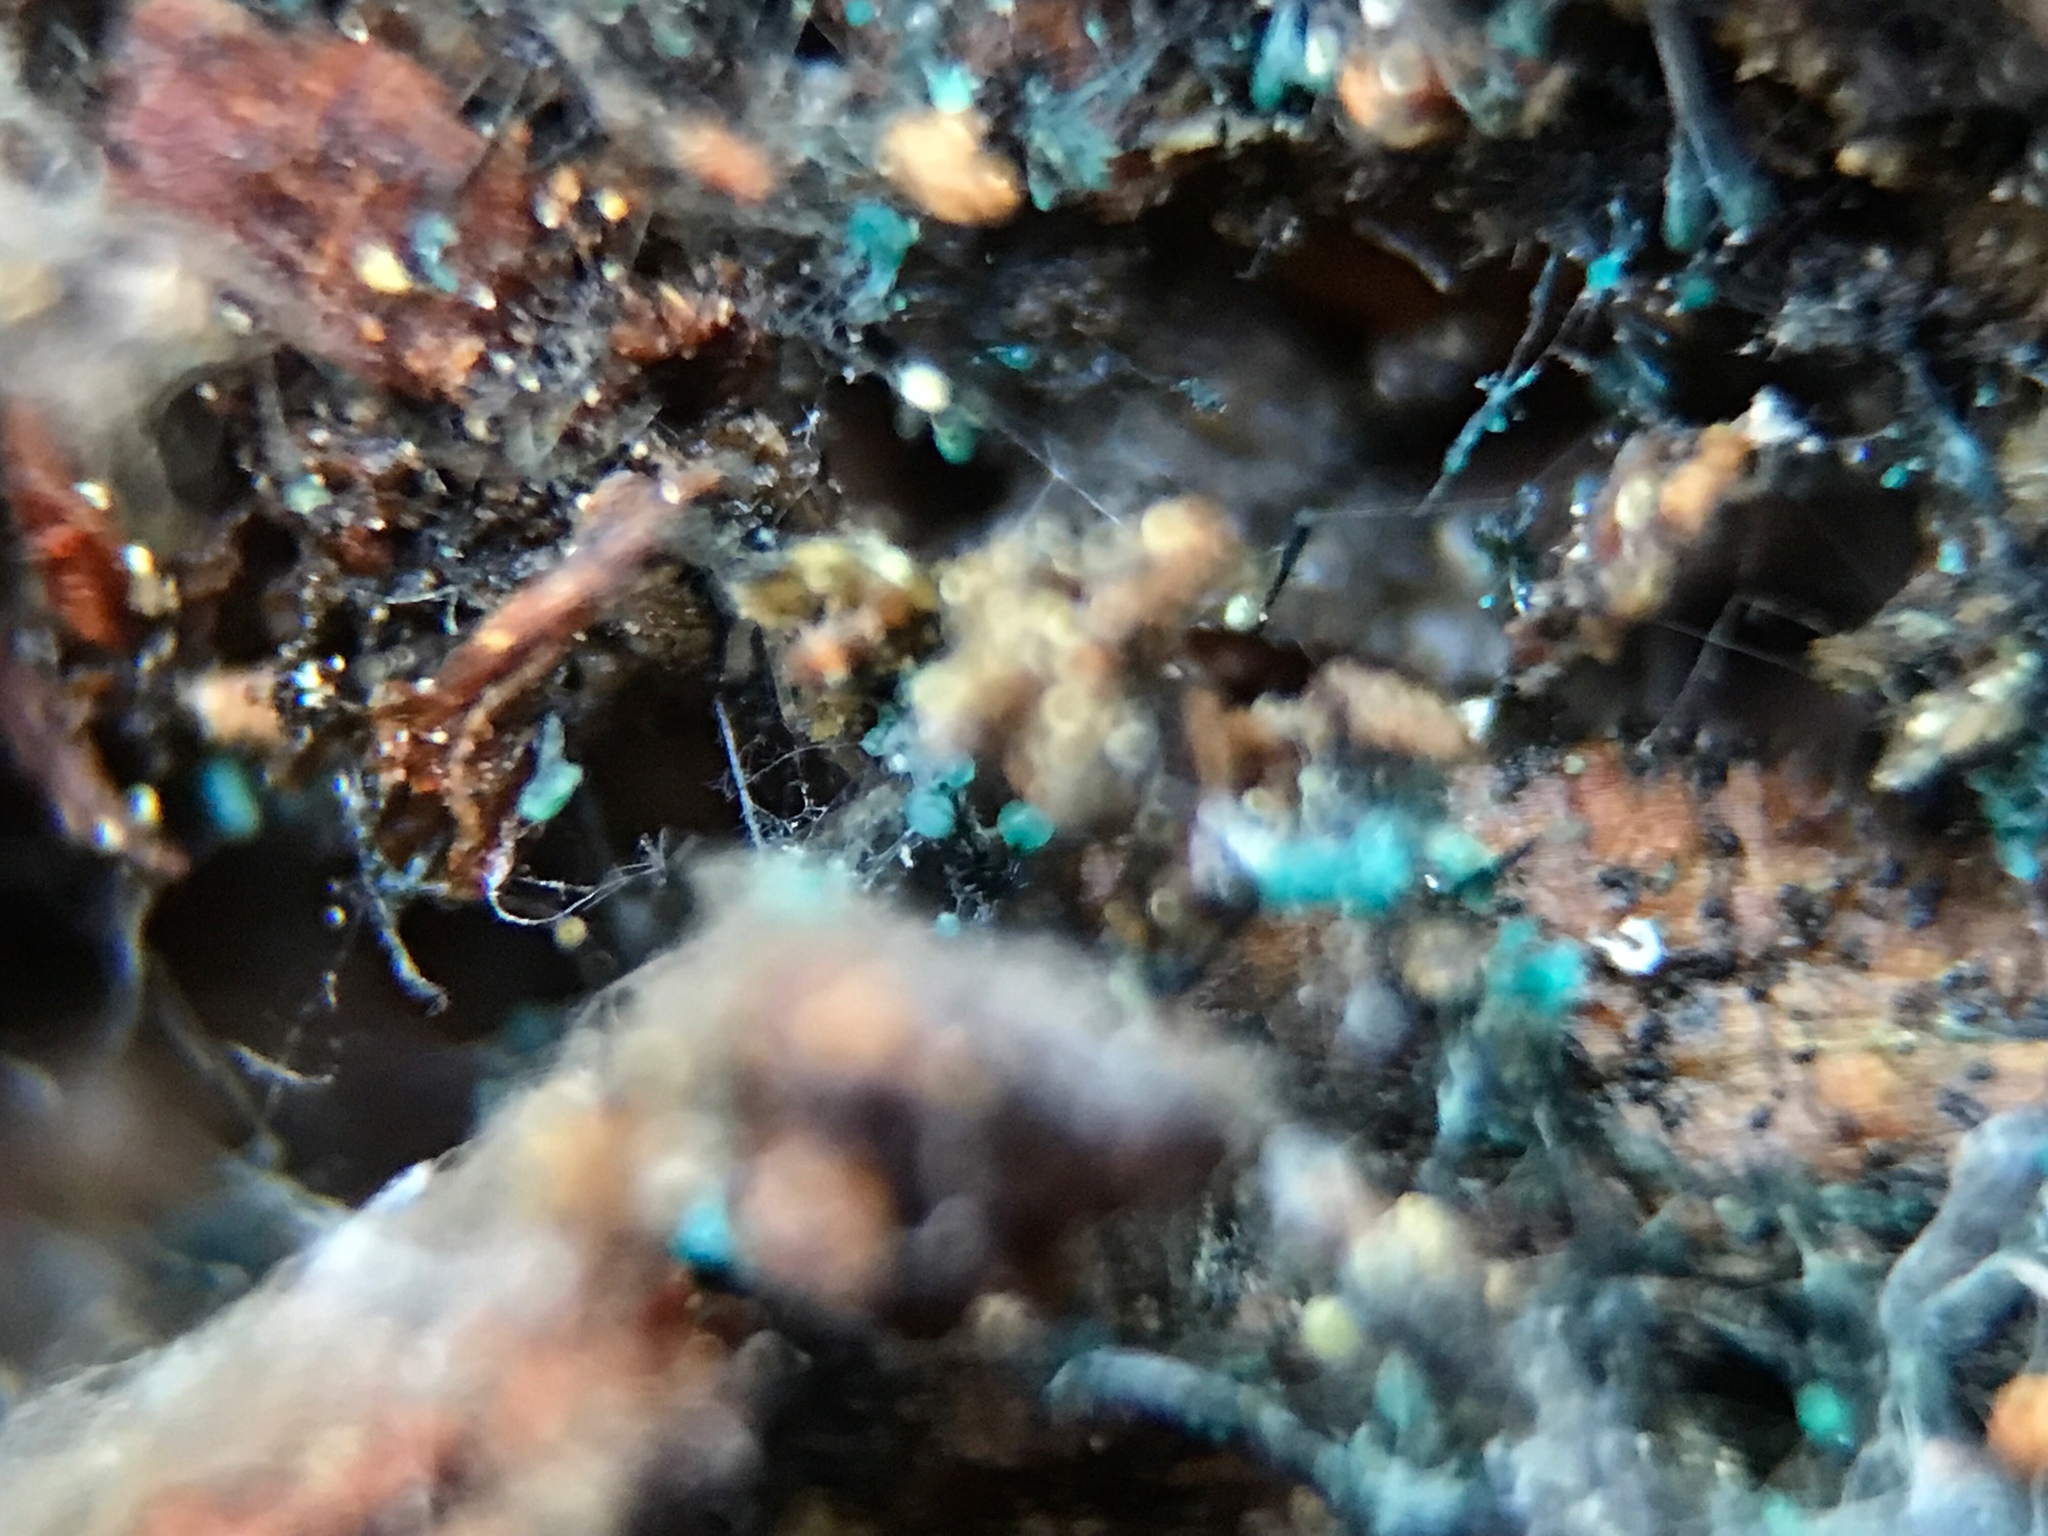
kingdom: Fungi
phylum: Ascomycota
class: Leotiomycetes
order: Leotiales
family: Tympanidaceae
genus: Dendrostilbella
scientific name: Dendrostilbella smaragdina
